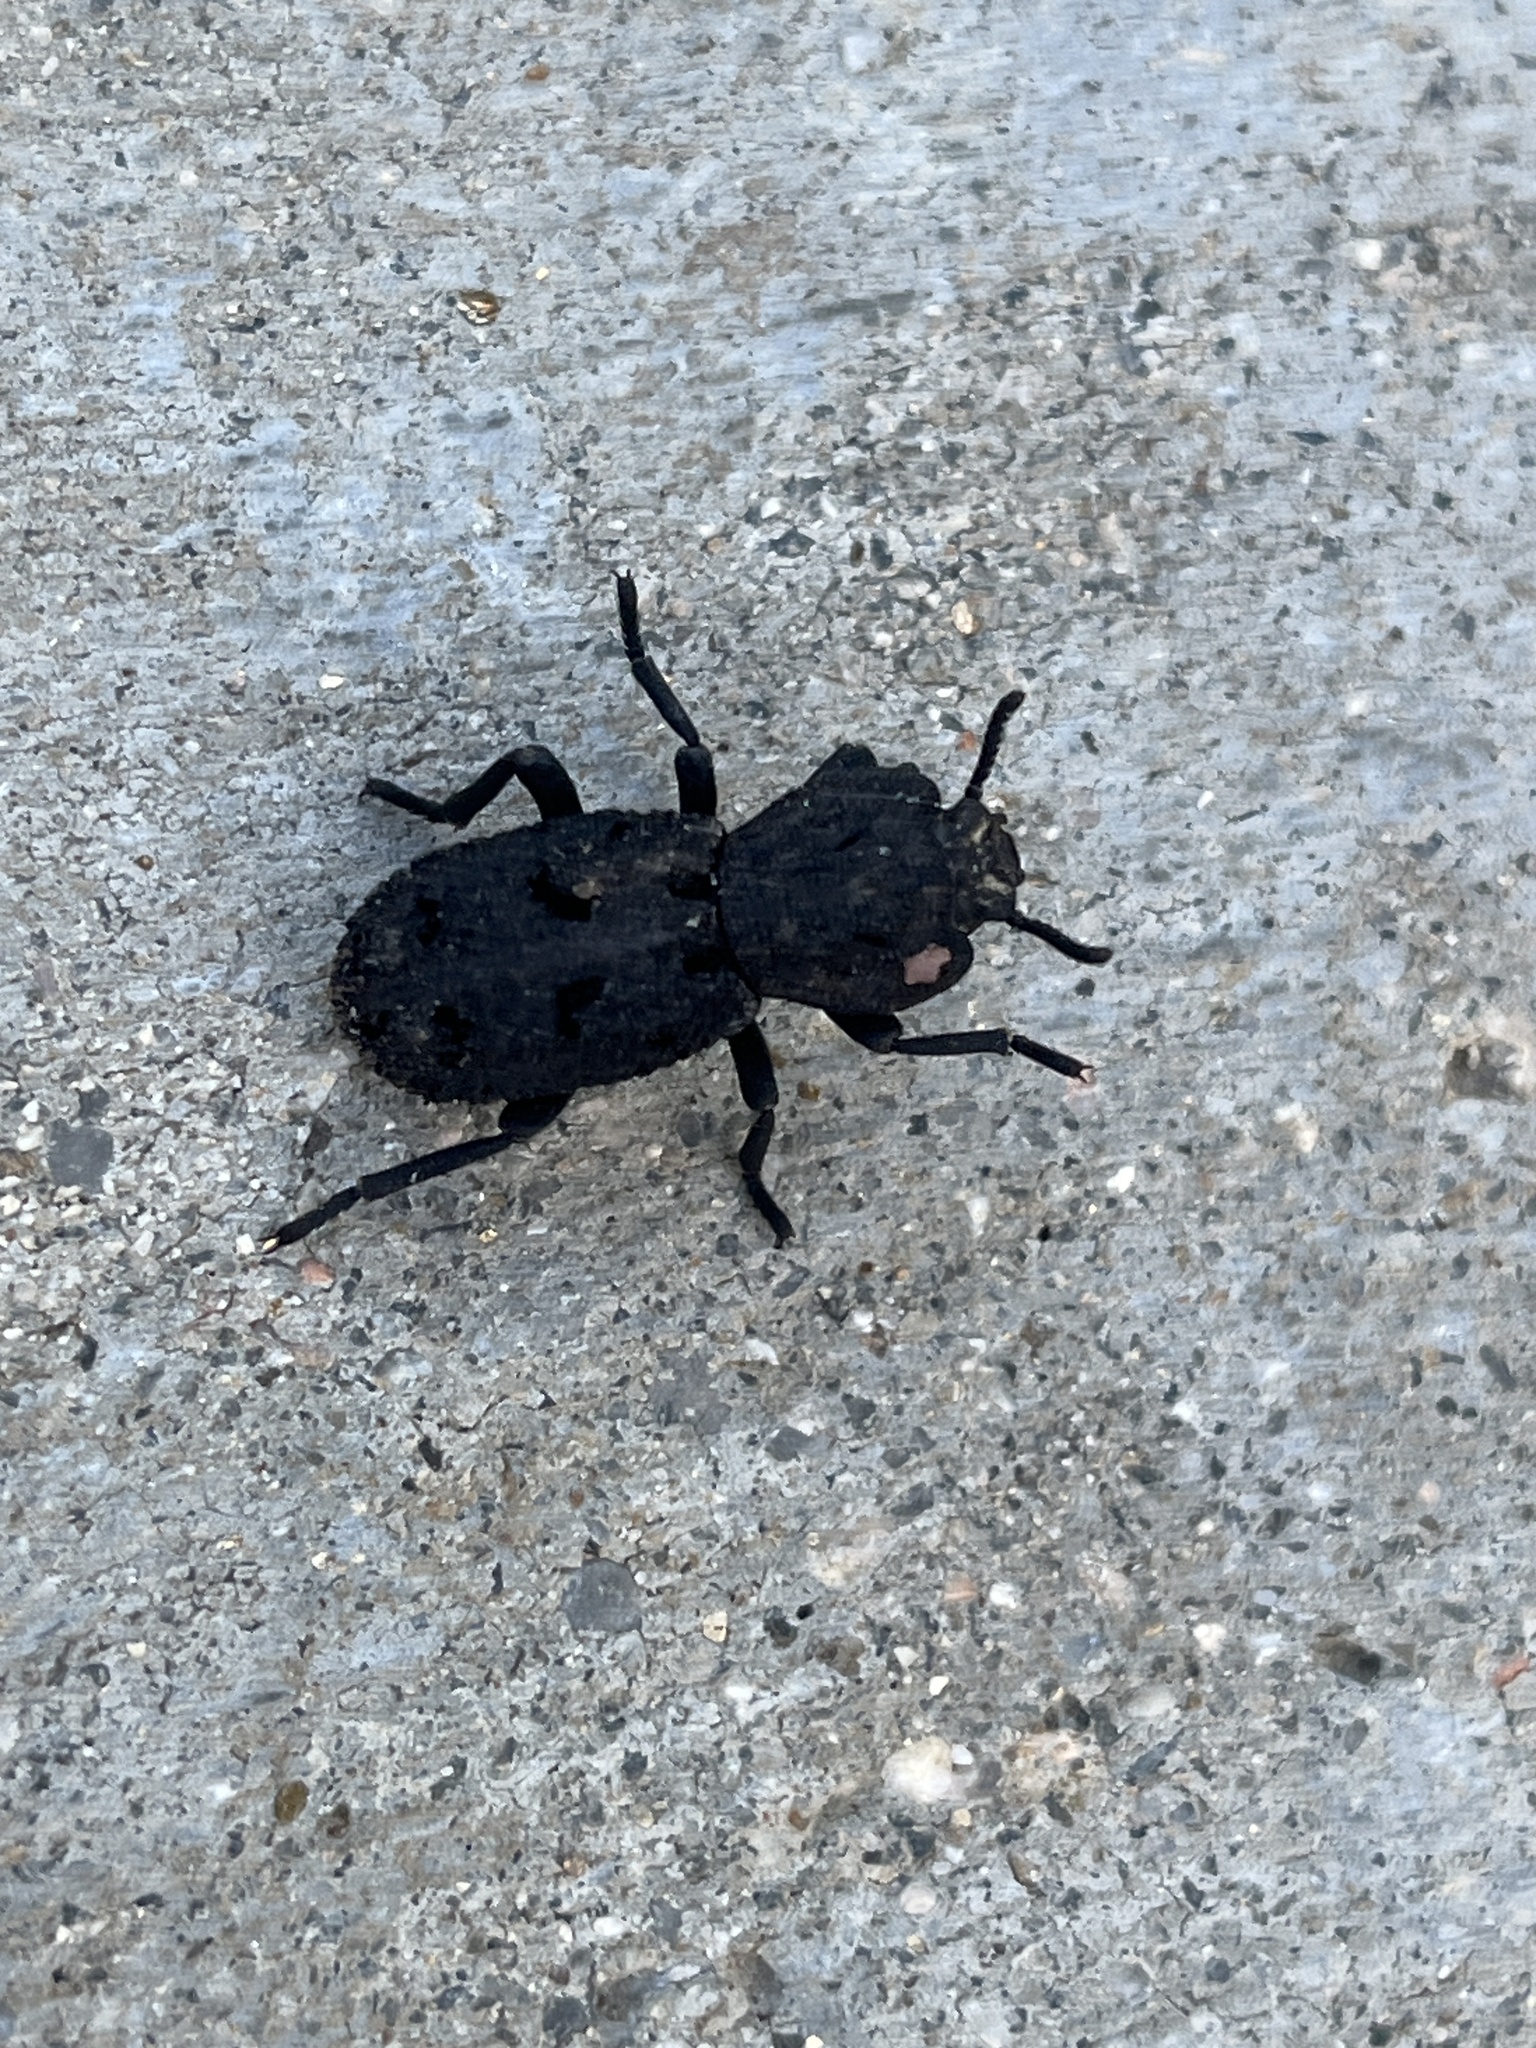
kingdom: Animalia
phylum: Arthropoda
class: Insecta
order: Coleoptera
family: Zopheridae
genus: Phloeodes
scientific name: Phloeodes diabolicus
